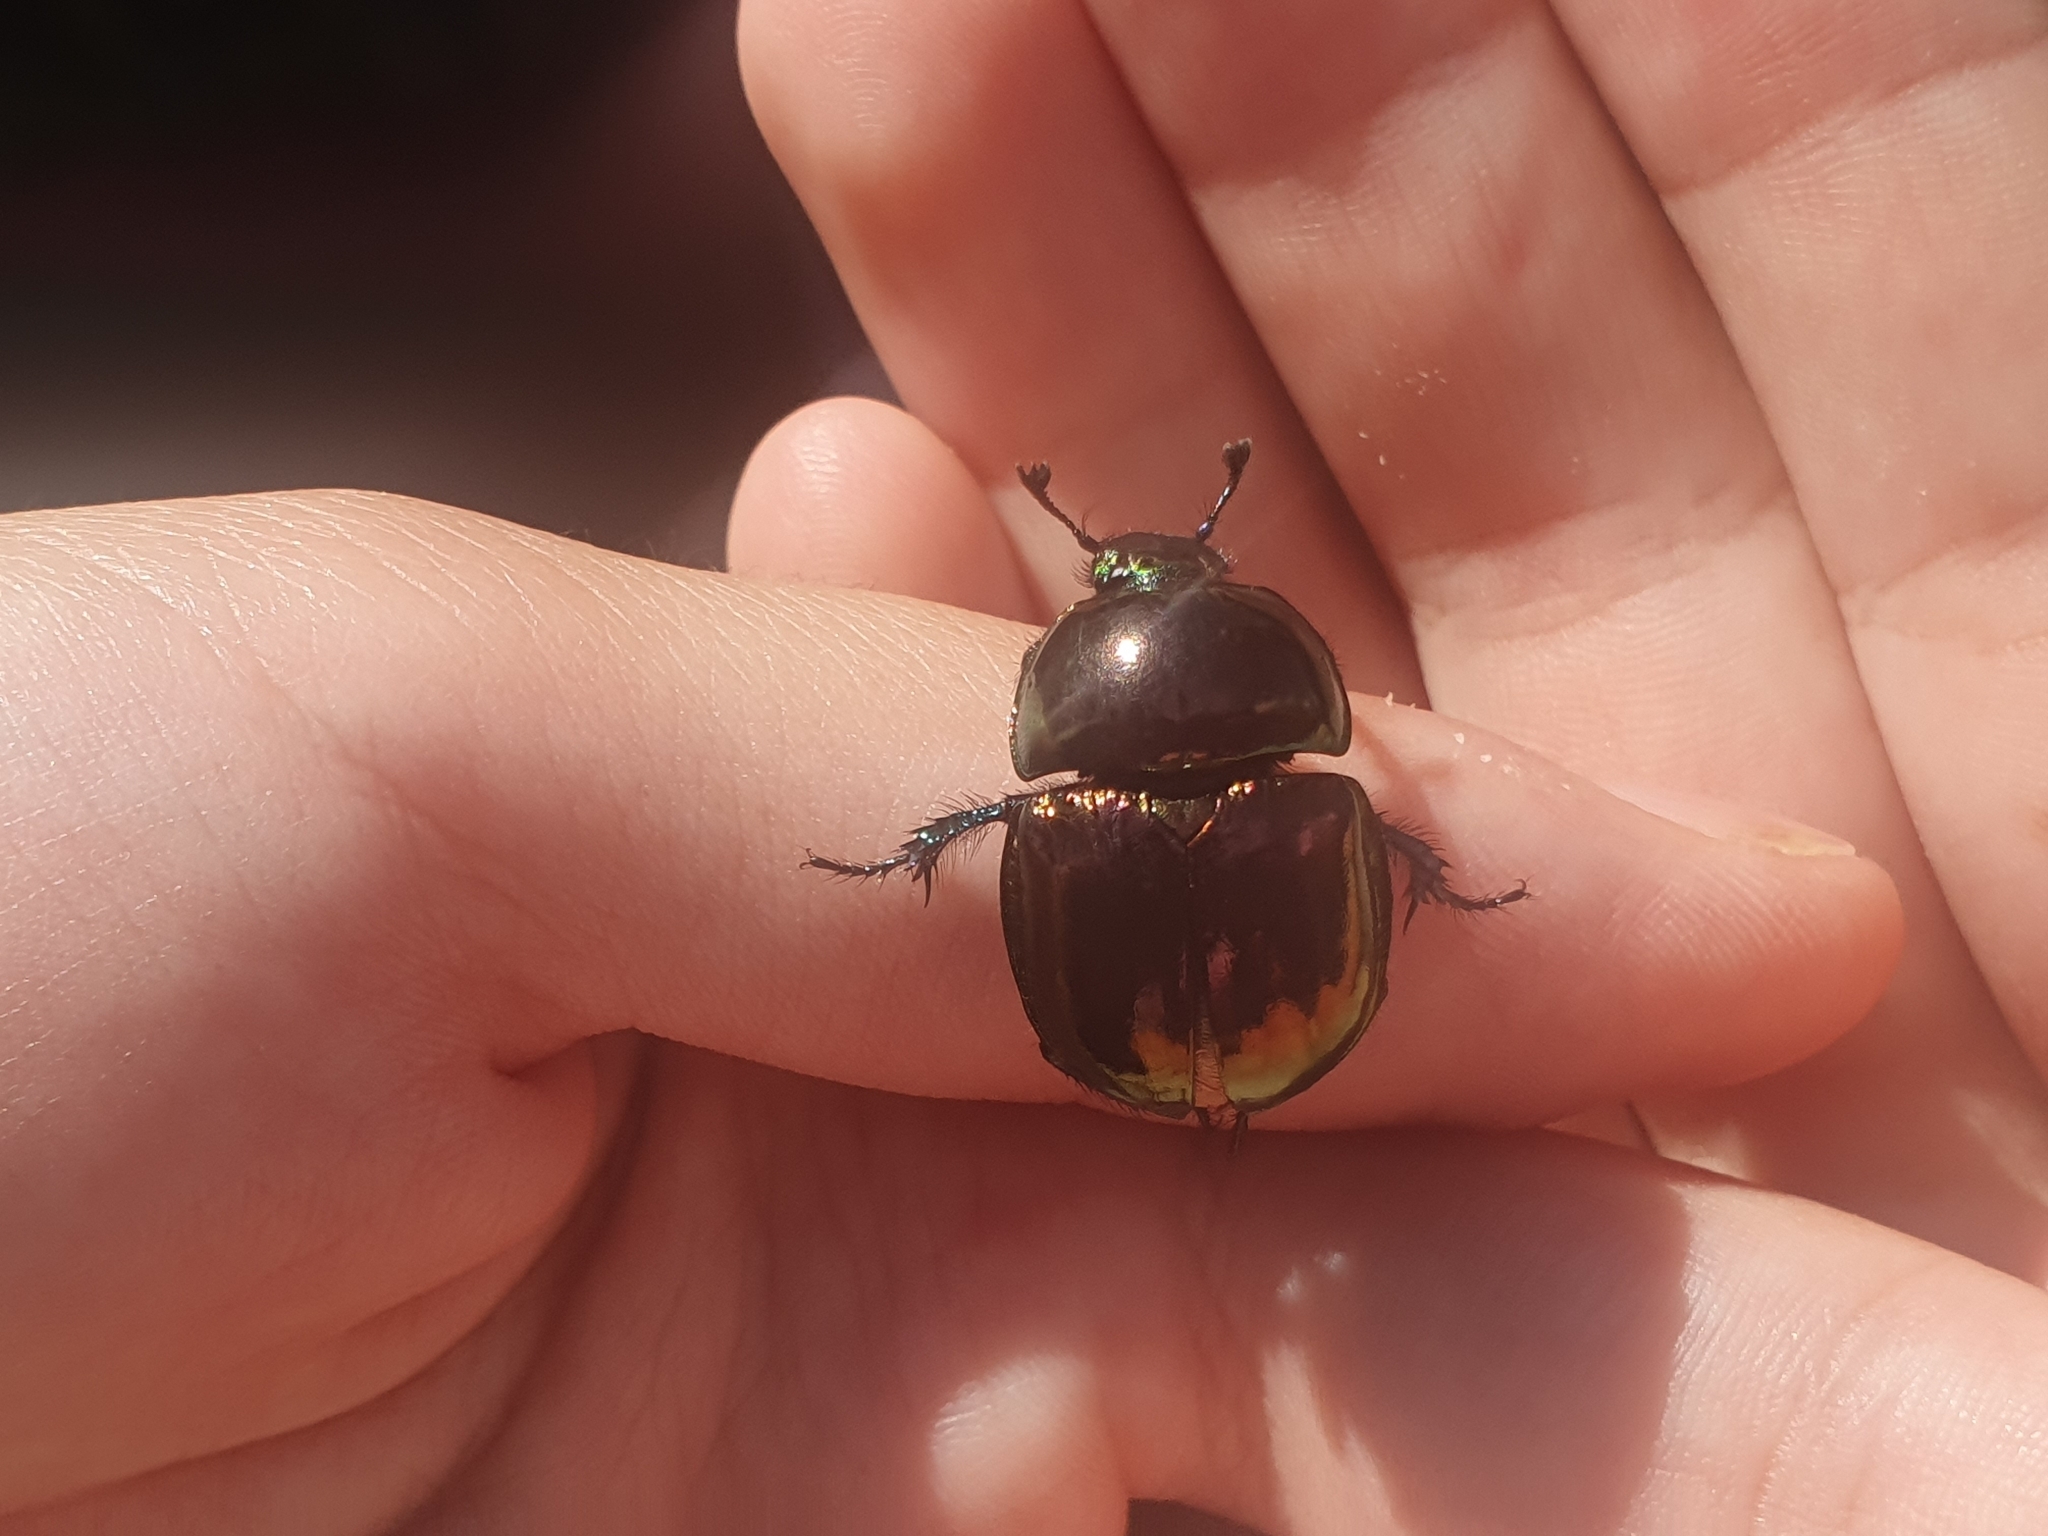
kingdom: Animalia
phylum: Arthropoda
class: Insecta
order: Coleoptera
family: Geotrupidae
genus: Trypocopris
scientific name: Trypocopris pyrenaeus
